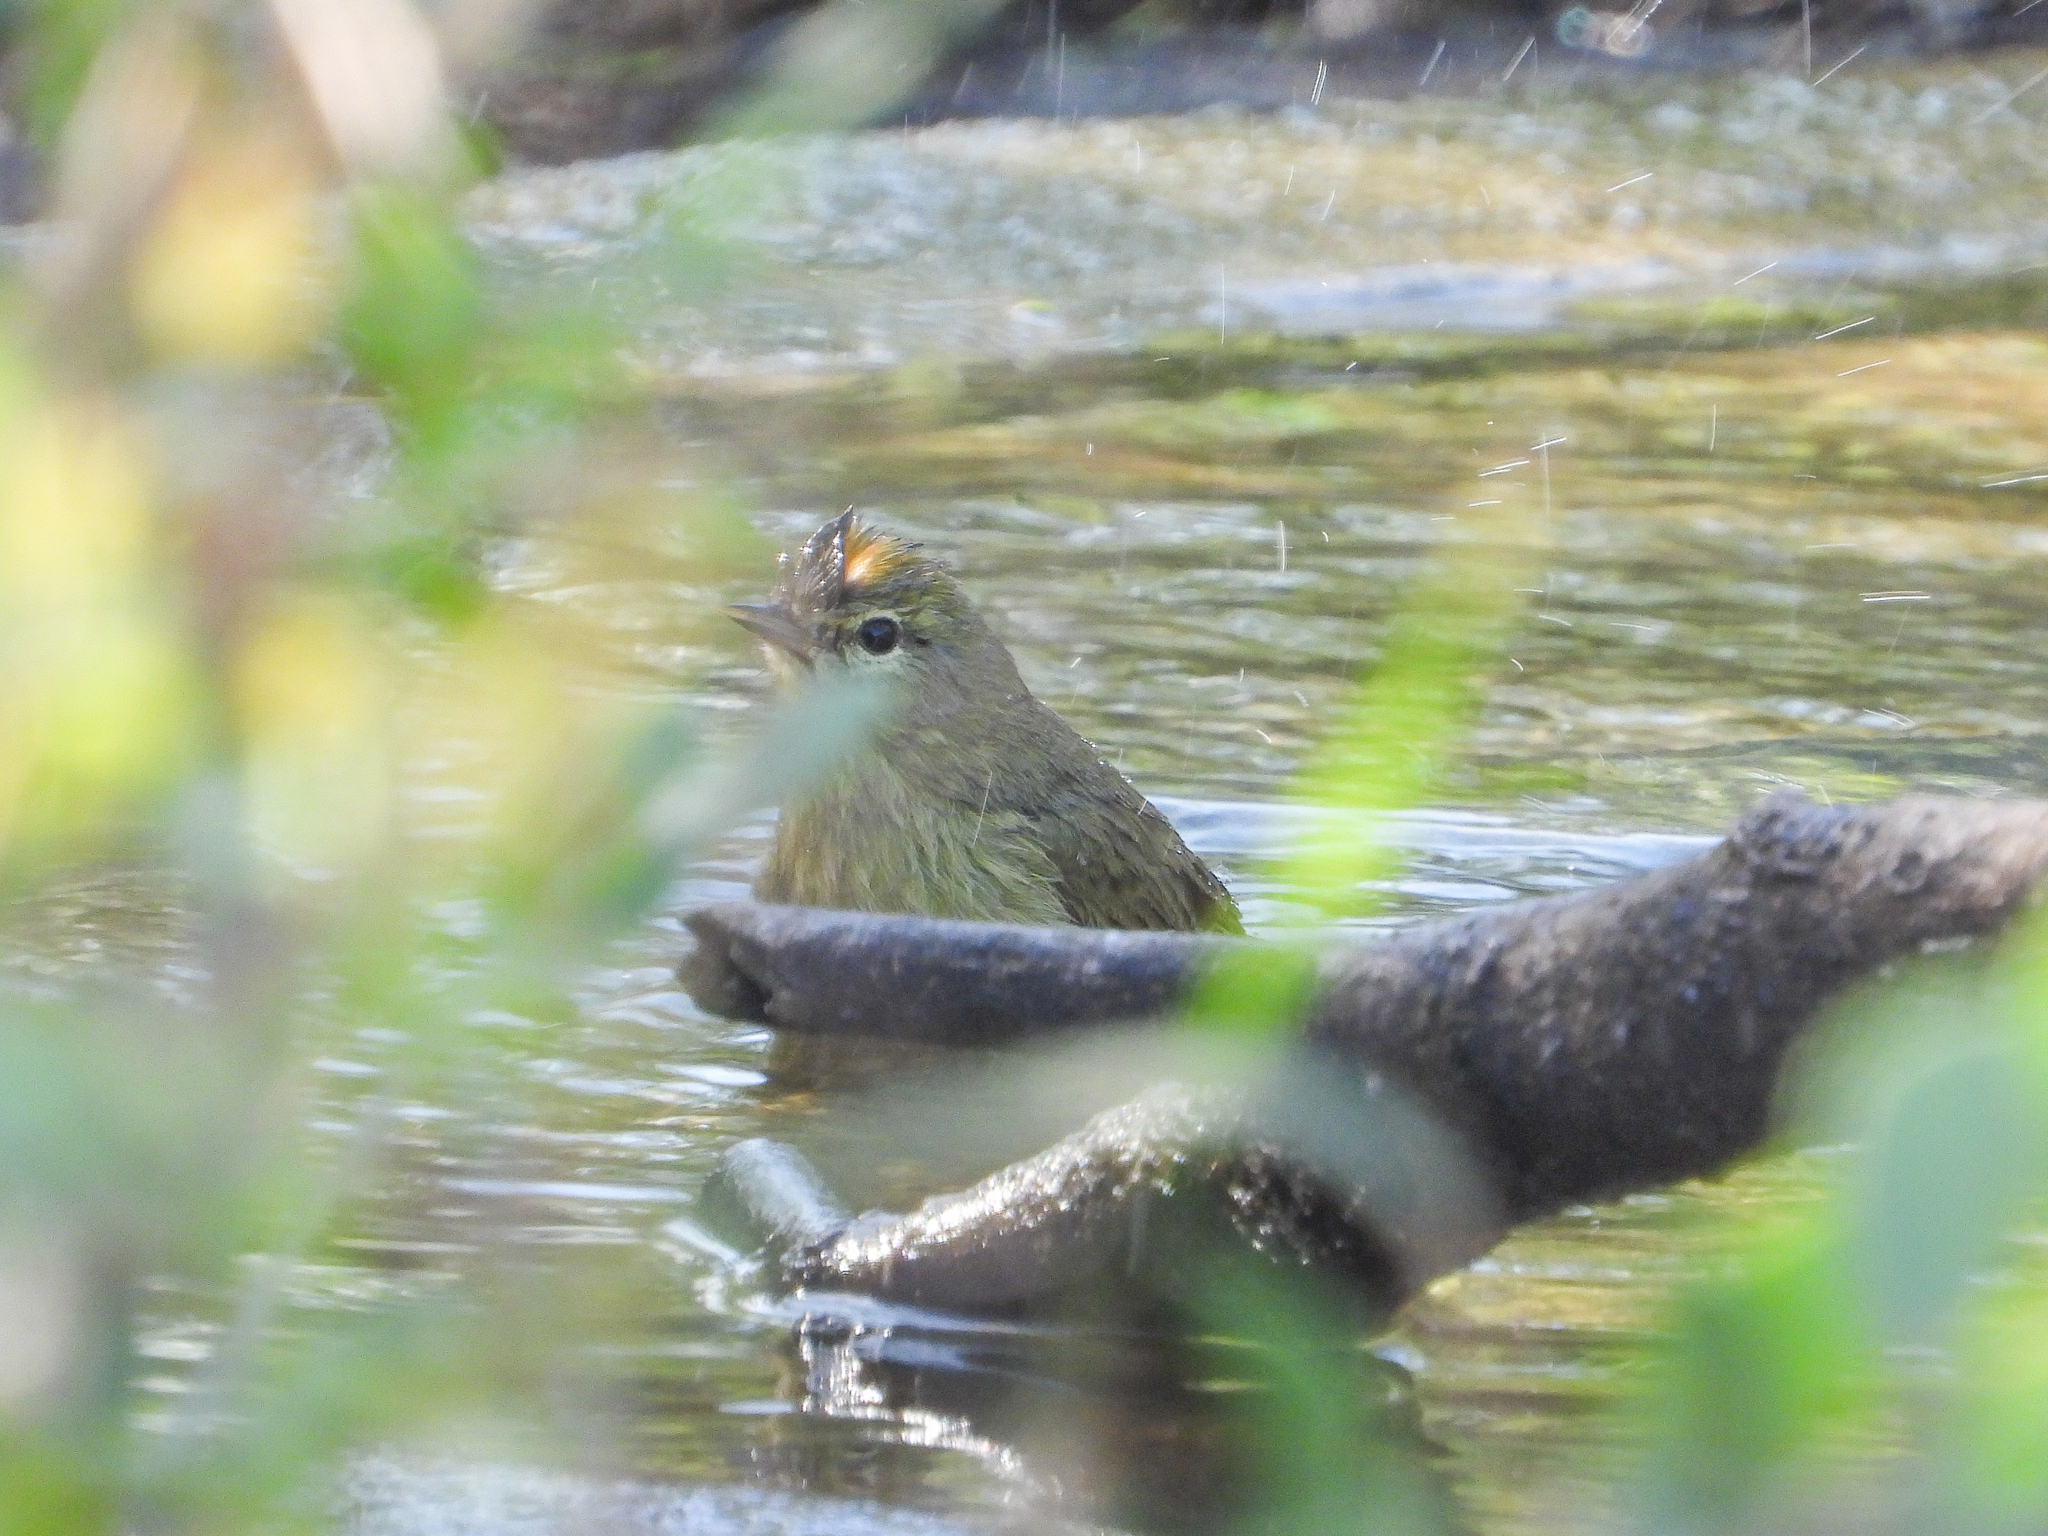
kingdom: Animalia
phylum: Chordata
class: Aves
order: Passeriformes
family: Parulidae
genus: Leiothlypis
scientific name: Leiothlypis celata
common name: Orange-crowned warbler
